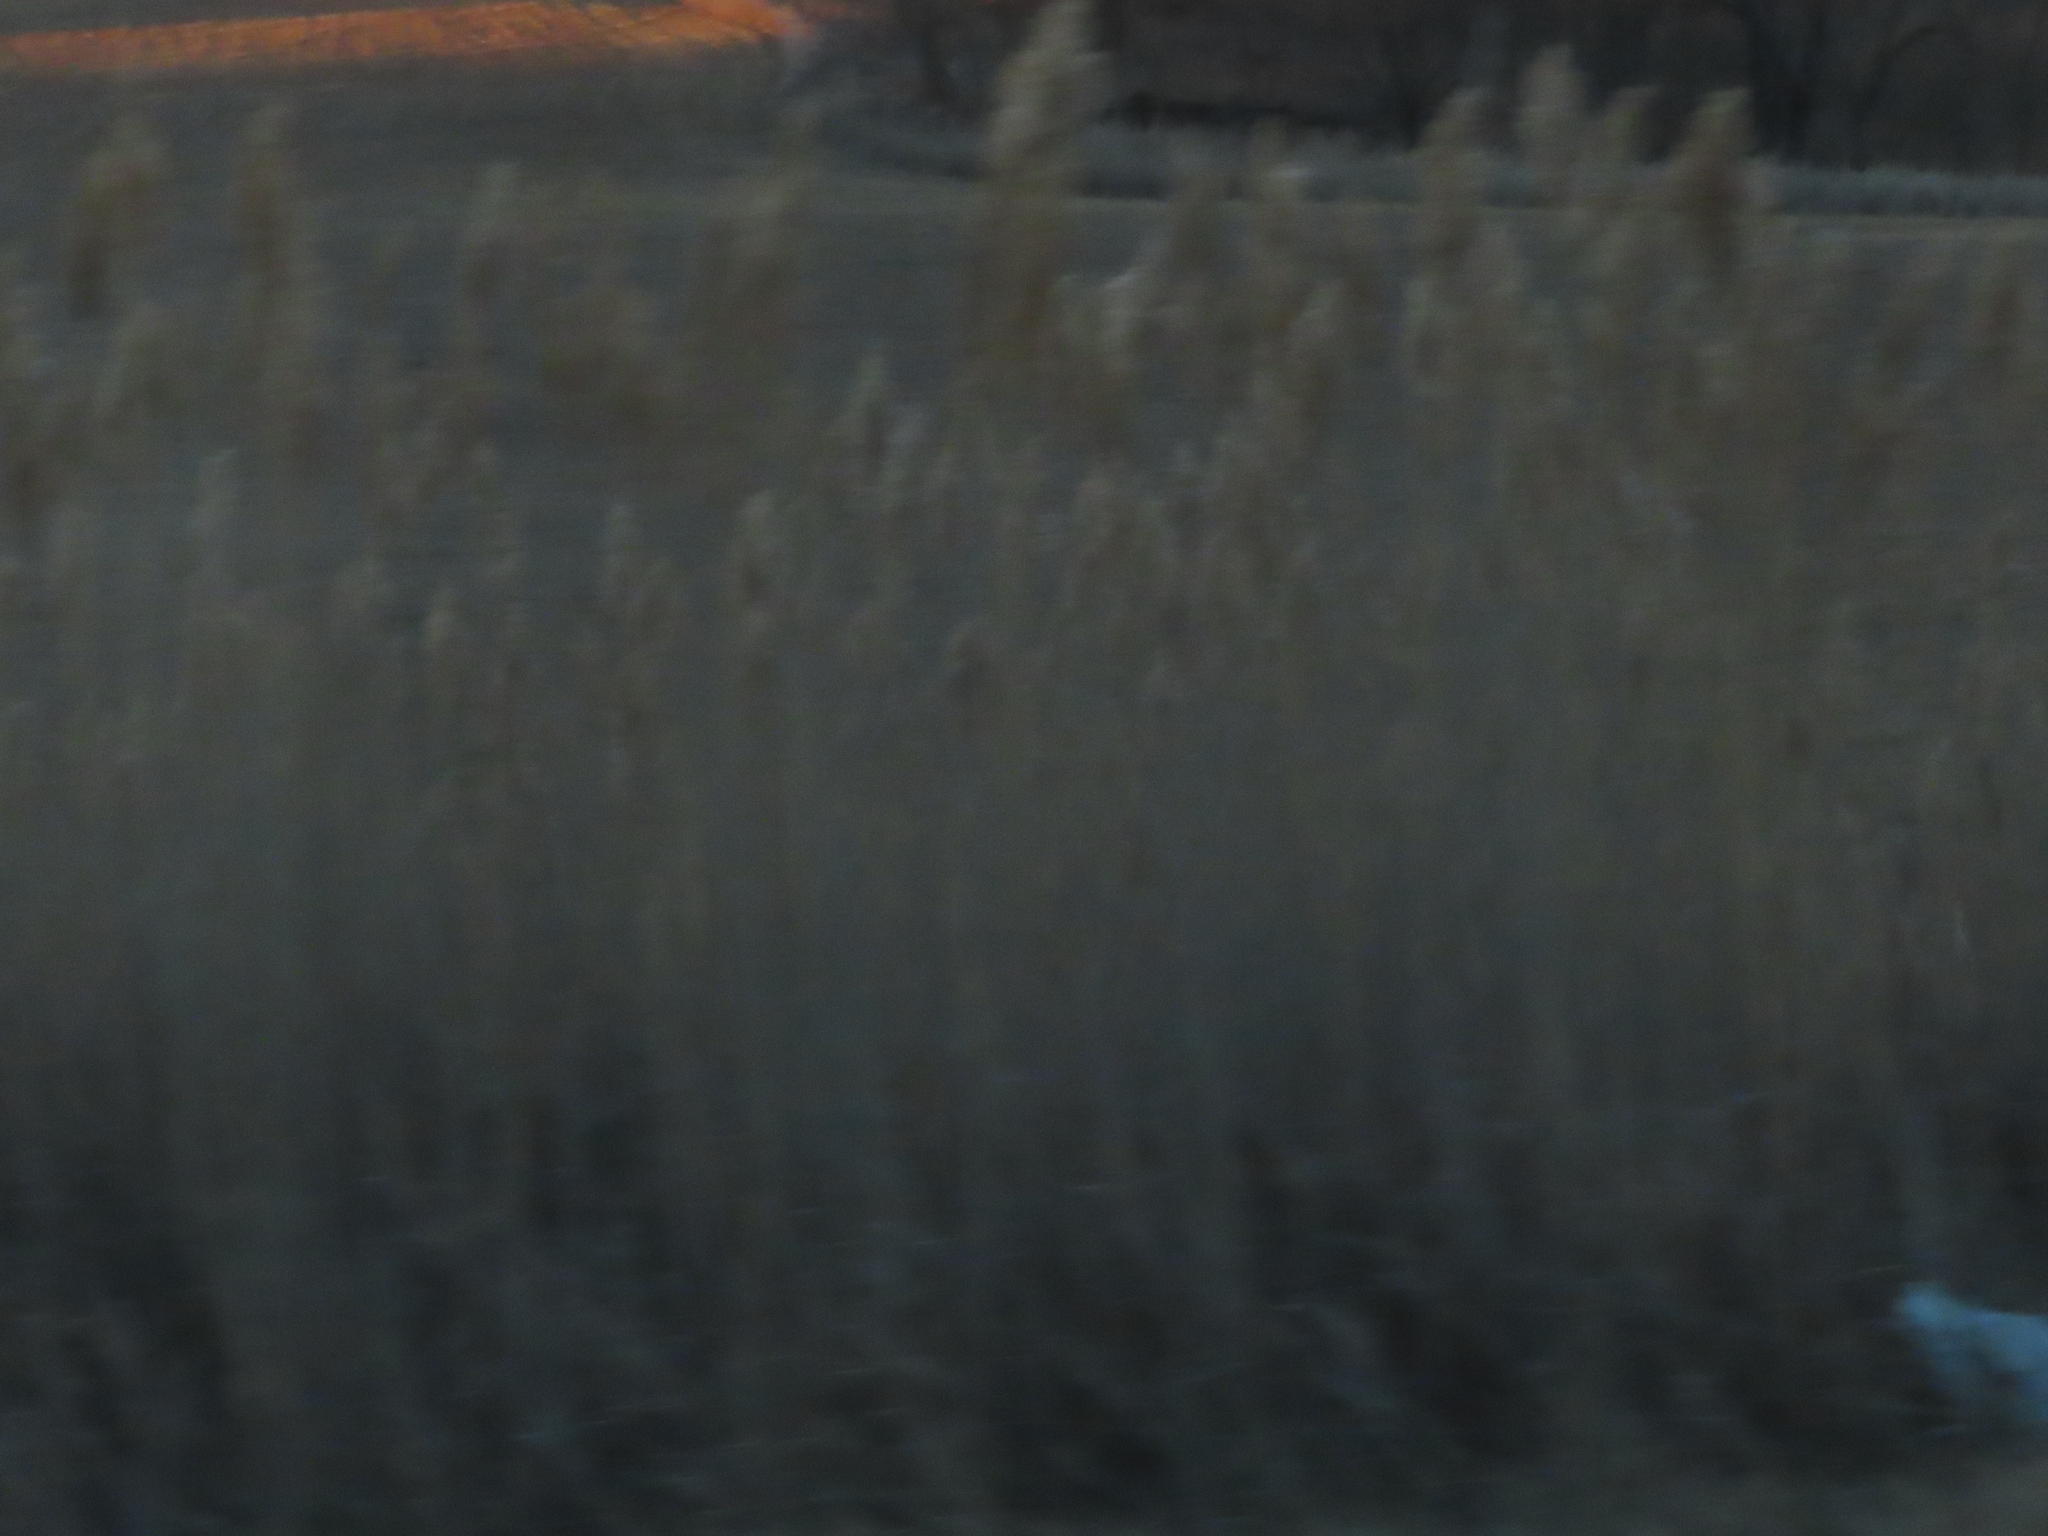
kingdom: Plantae
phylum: Tracheophyta
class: Liliopsida
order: Poales
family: Poaceae
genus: Phragmites
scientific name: Phragmites australis
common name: Common reed
